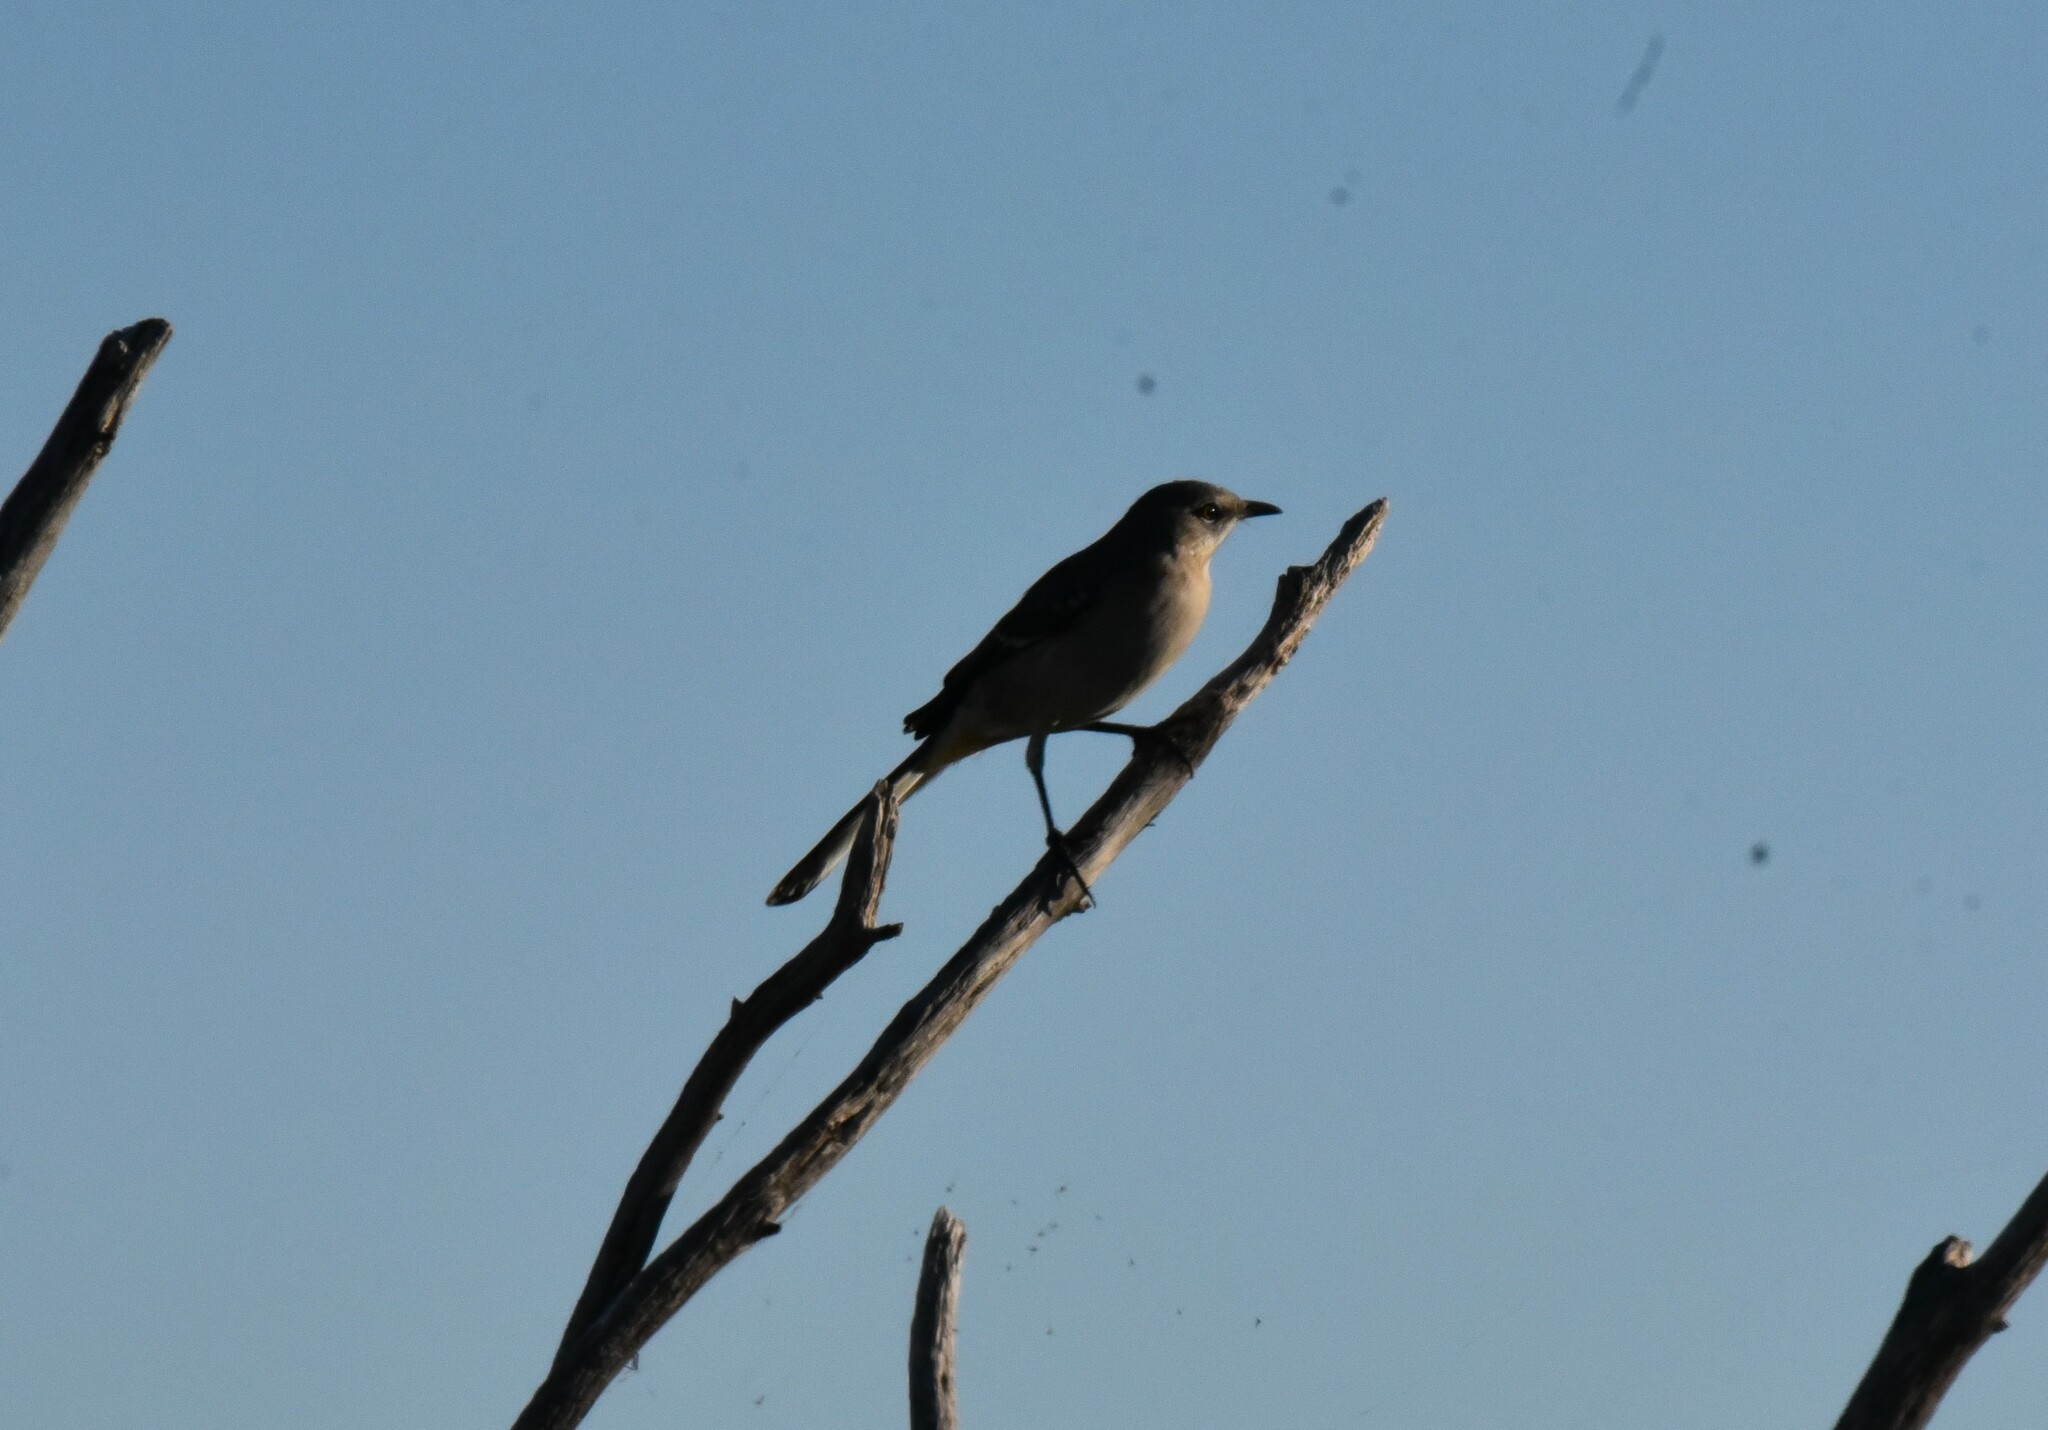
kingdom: Animalia
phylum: Chordata
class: Aves
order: Passeriformes
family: Mimidae
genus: Mimus
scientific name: Mimus polyglottos
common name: Northern mockingbird
